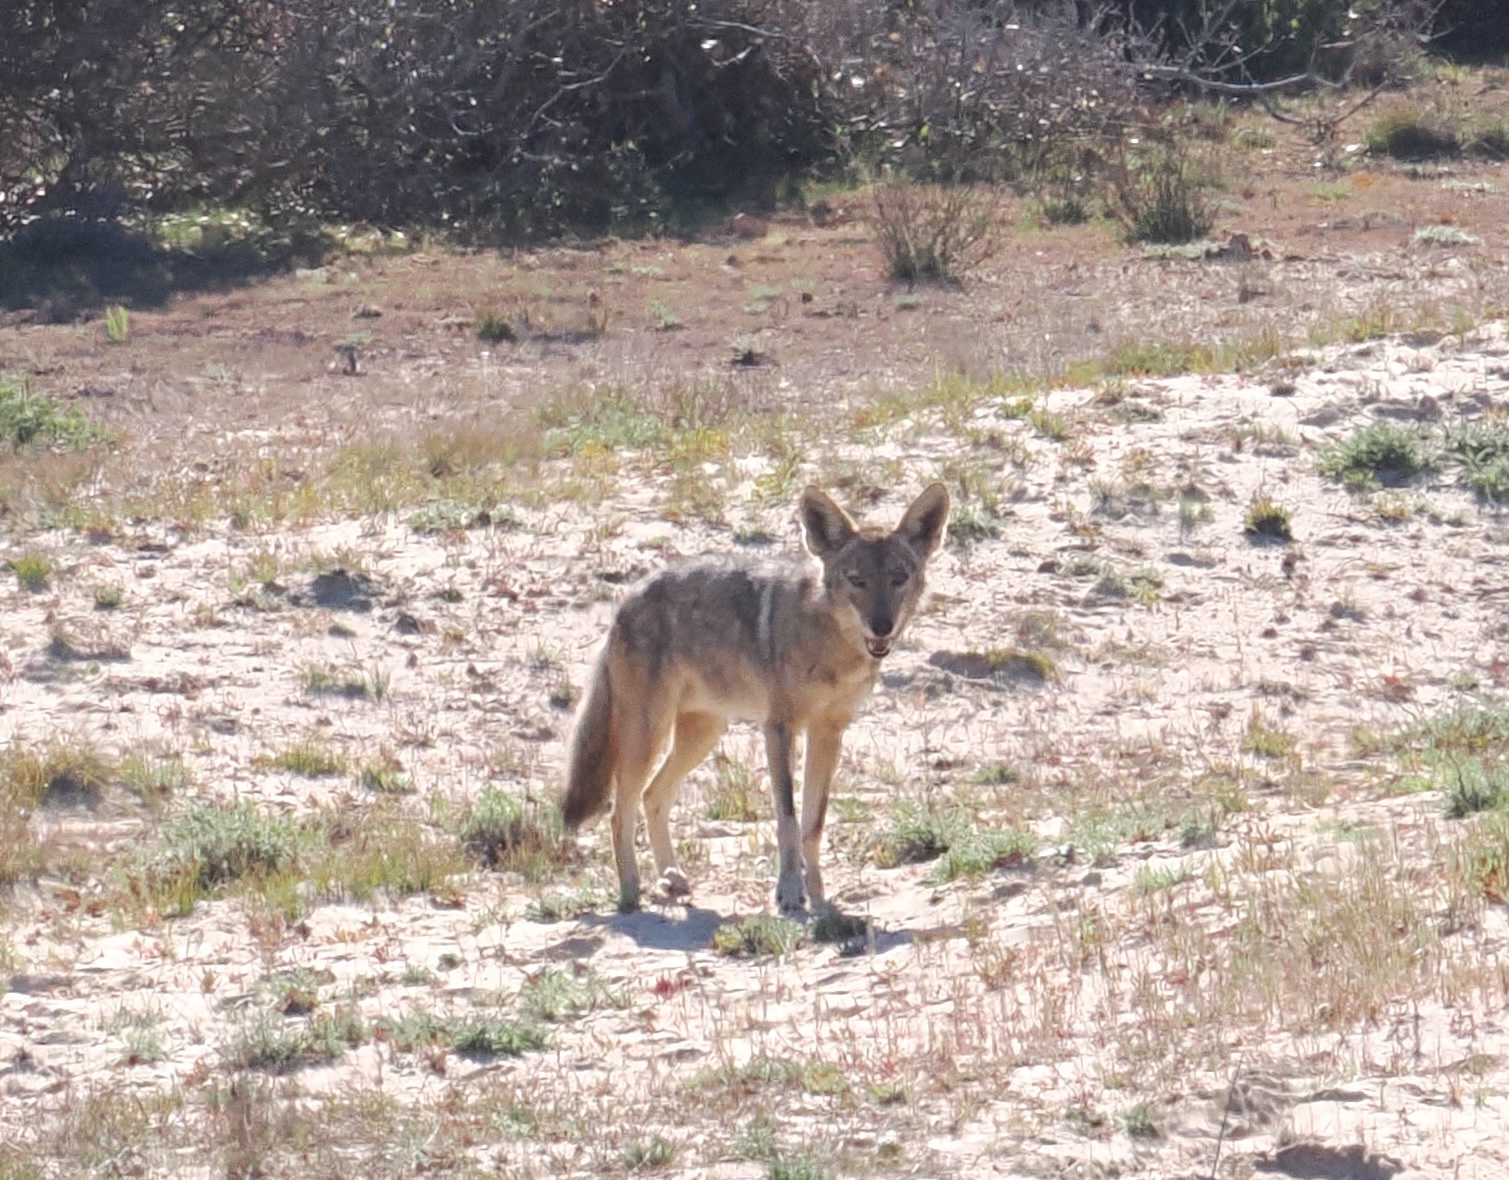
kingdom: Animalia
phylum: Chordata
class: Mammalia
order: Carnivora
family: Canidae
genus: Canis
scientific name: Canis latrans
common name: Coyote
